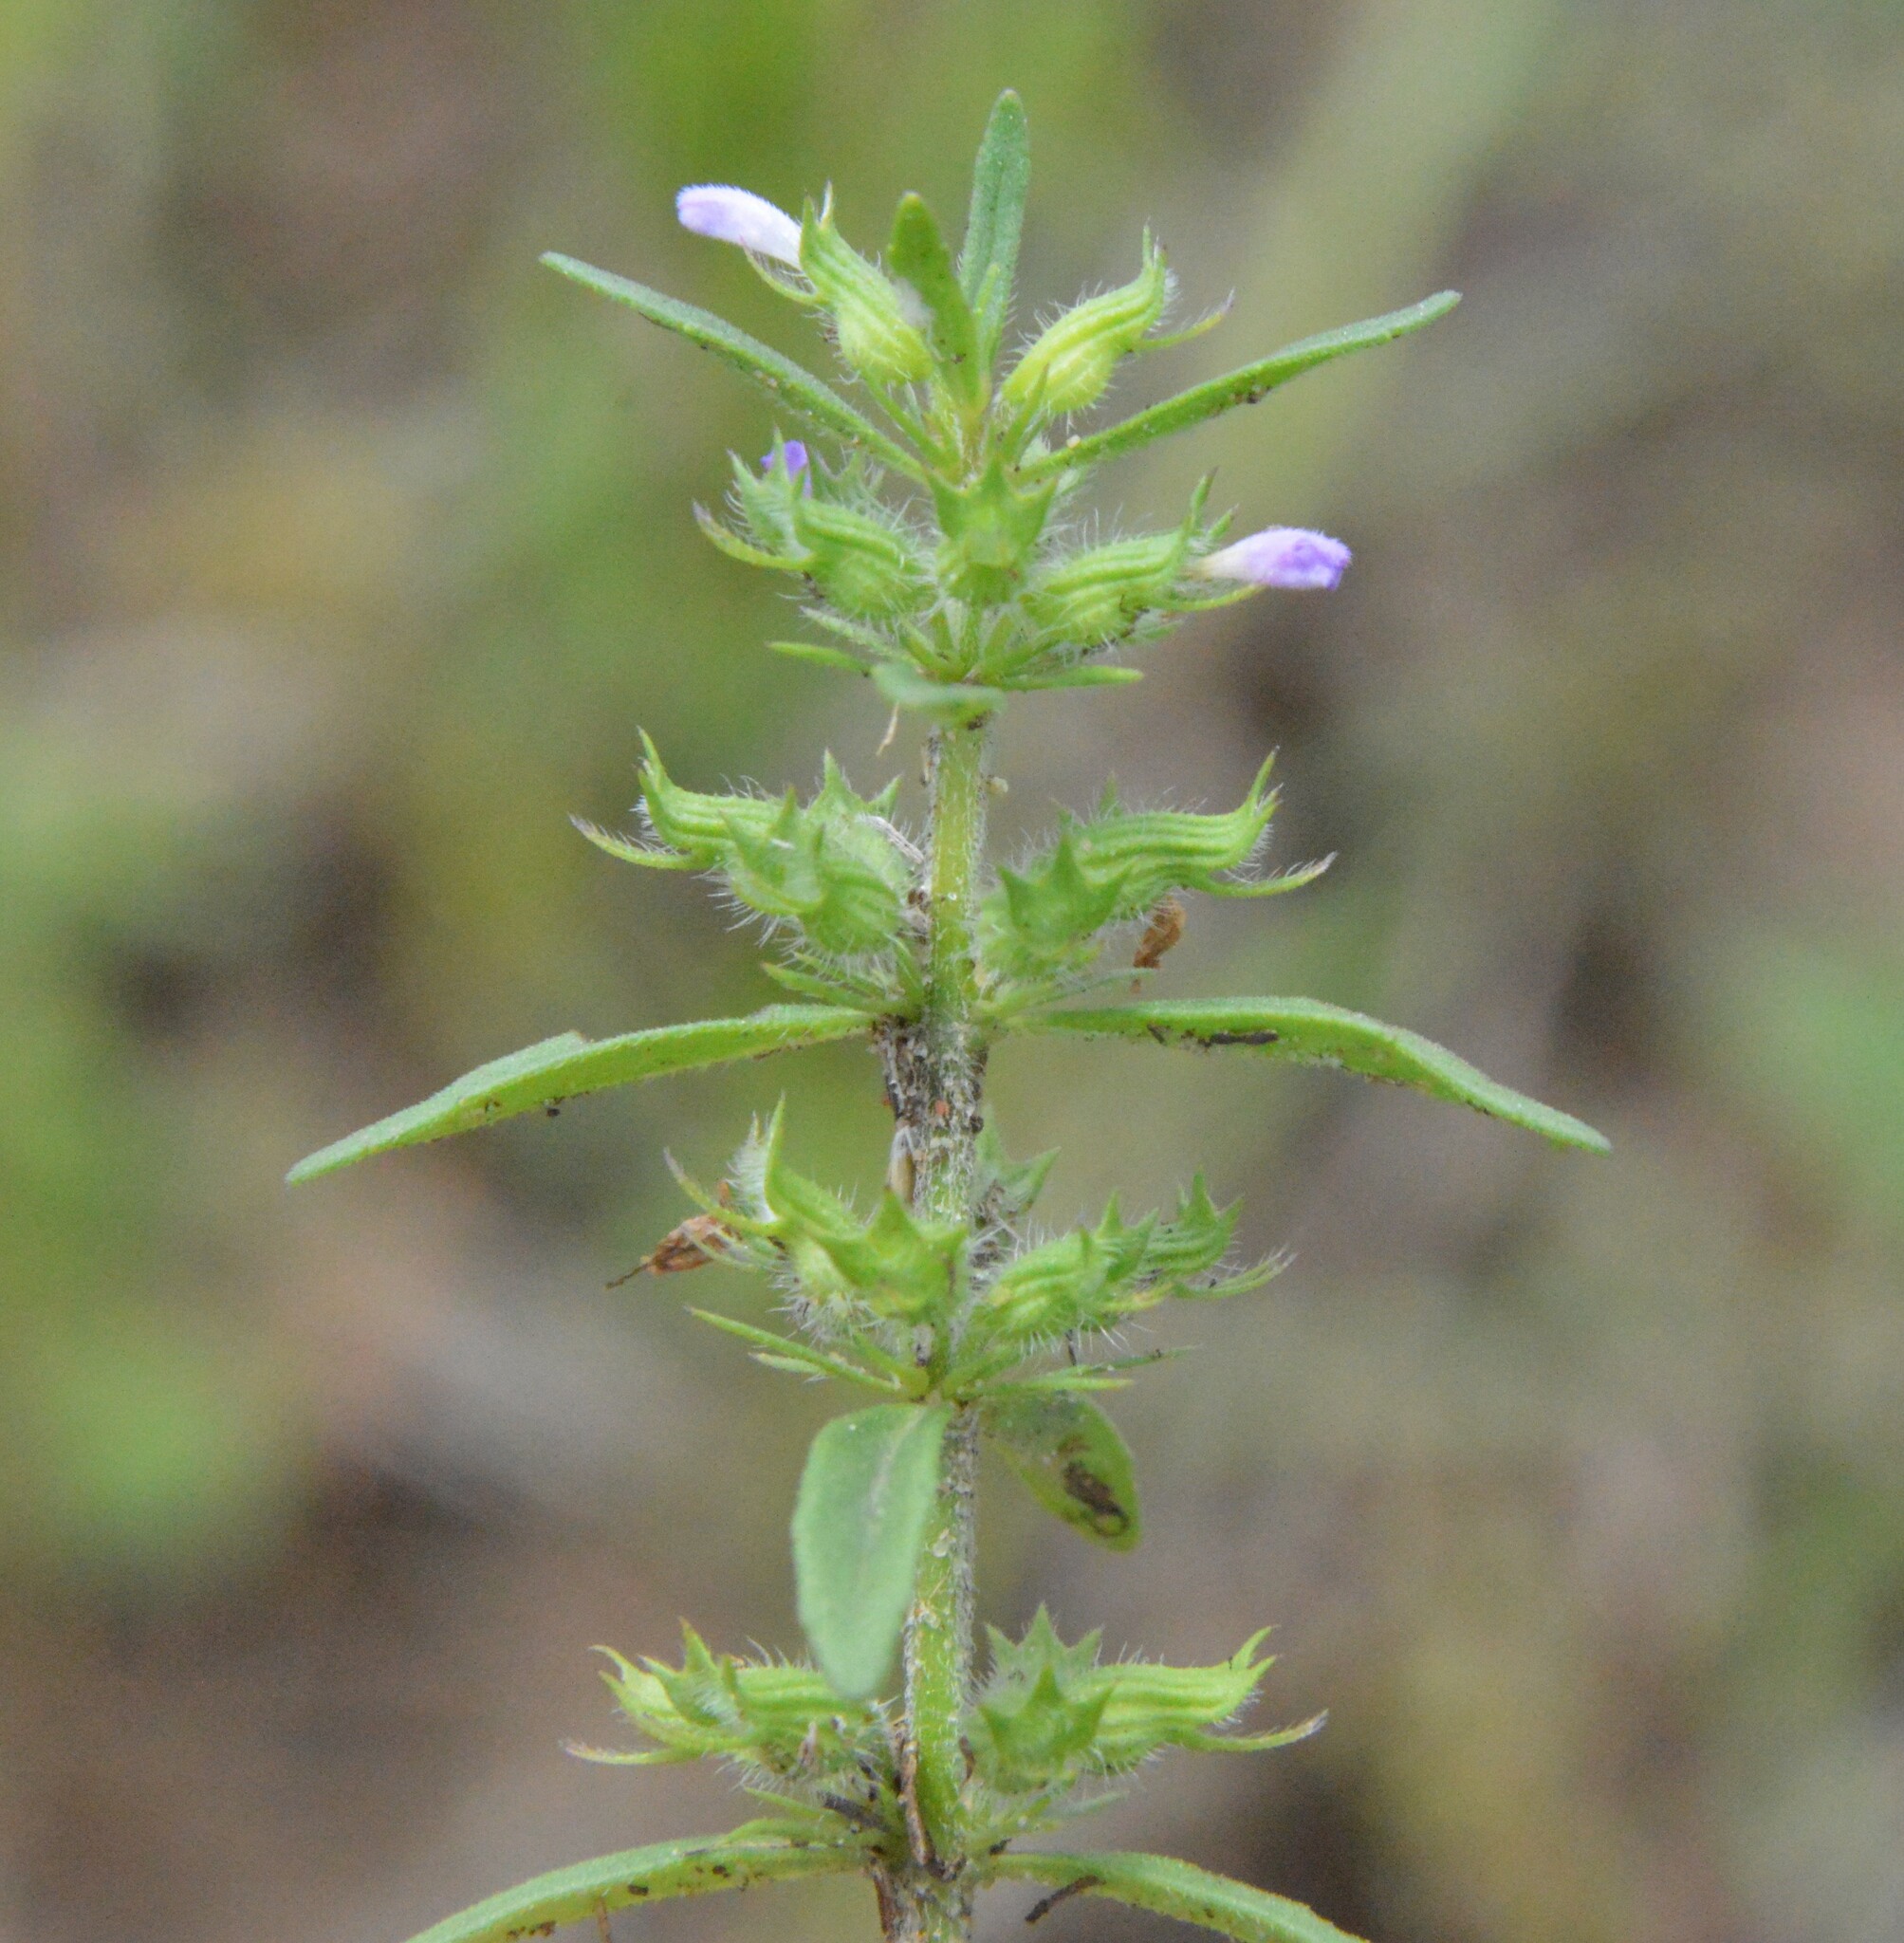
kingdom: Plantae
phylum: Tracheophyta
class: Magnoliopsida
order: Lamiales
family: Lamiaceae
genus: Hedeoma
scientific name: Hedeoma hispida
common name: Mock pennyroyal
